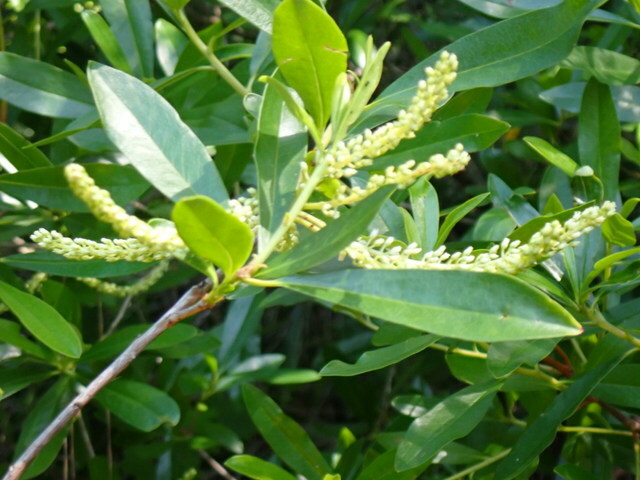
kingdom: Plantae
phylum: Tracheophyta
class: Magnoliopsida
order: Ericales
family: Cyrillaceae
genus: Cyrilla
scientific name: Cyrilla racemiflora
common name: Black titi
